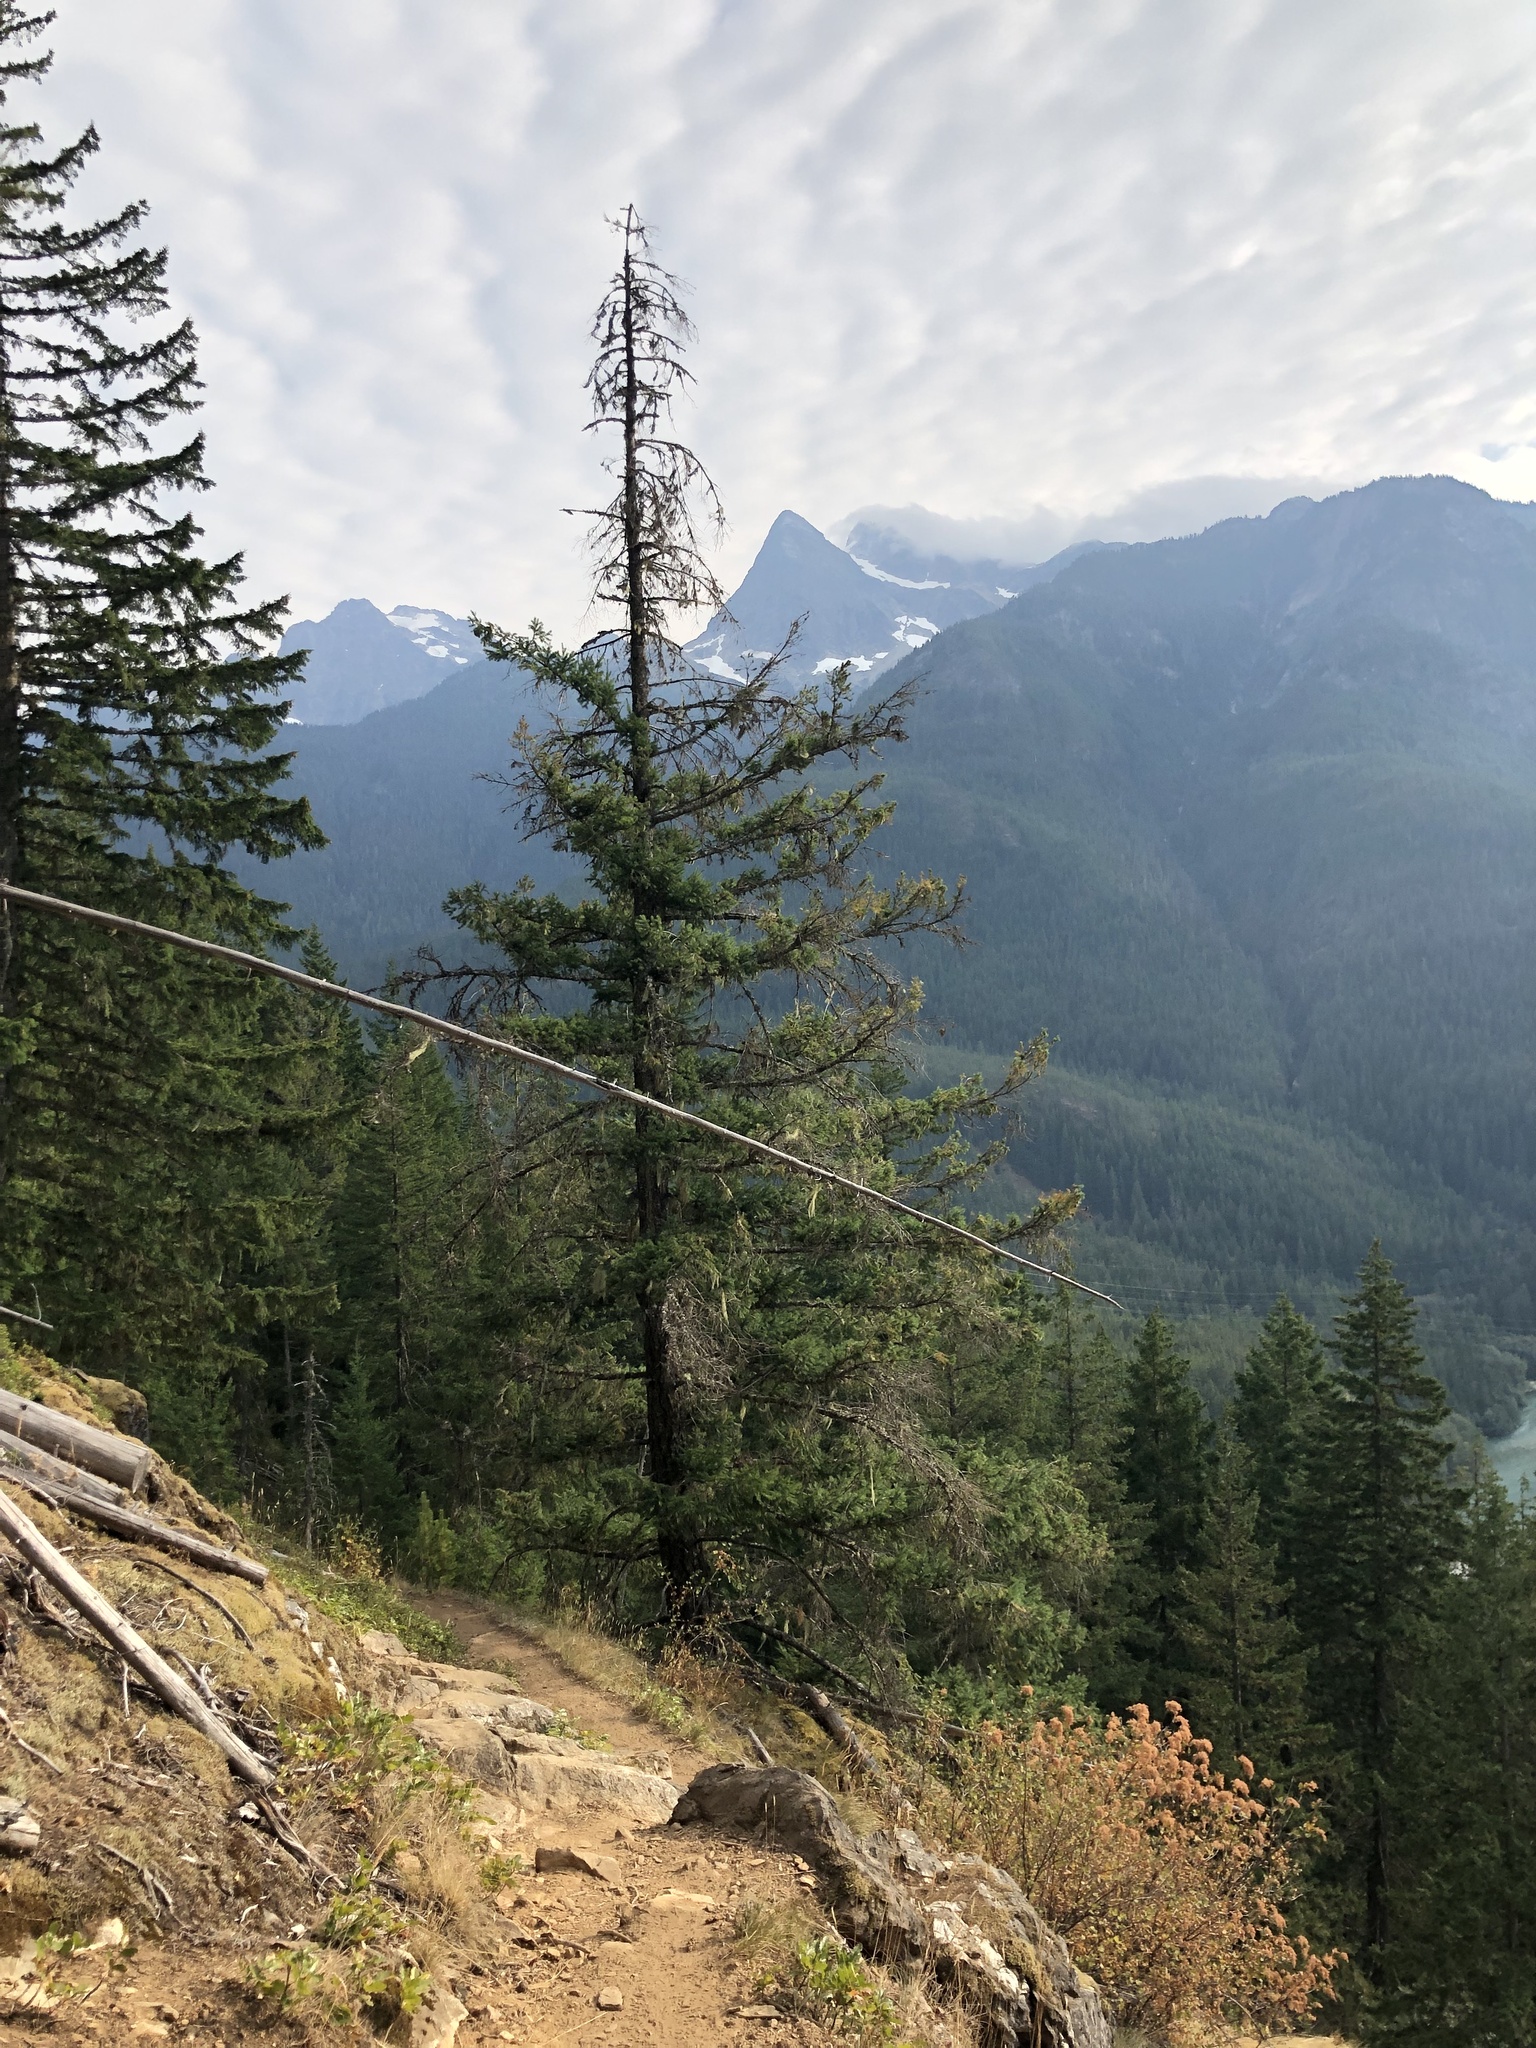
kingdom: Plantae
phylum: Tracheophyta
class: Pinopsida
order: Pinales
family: Pinaceae
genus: Pseudotsuga
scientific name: Pseudotsuga menziesii
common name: Douglas fir
